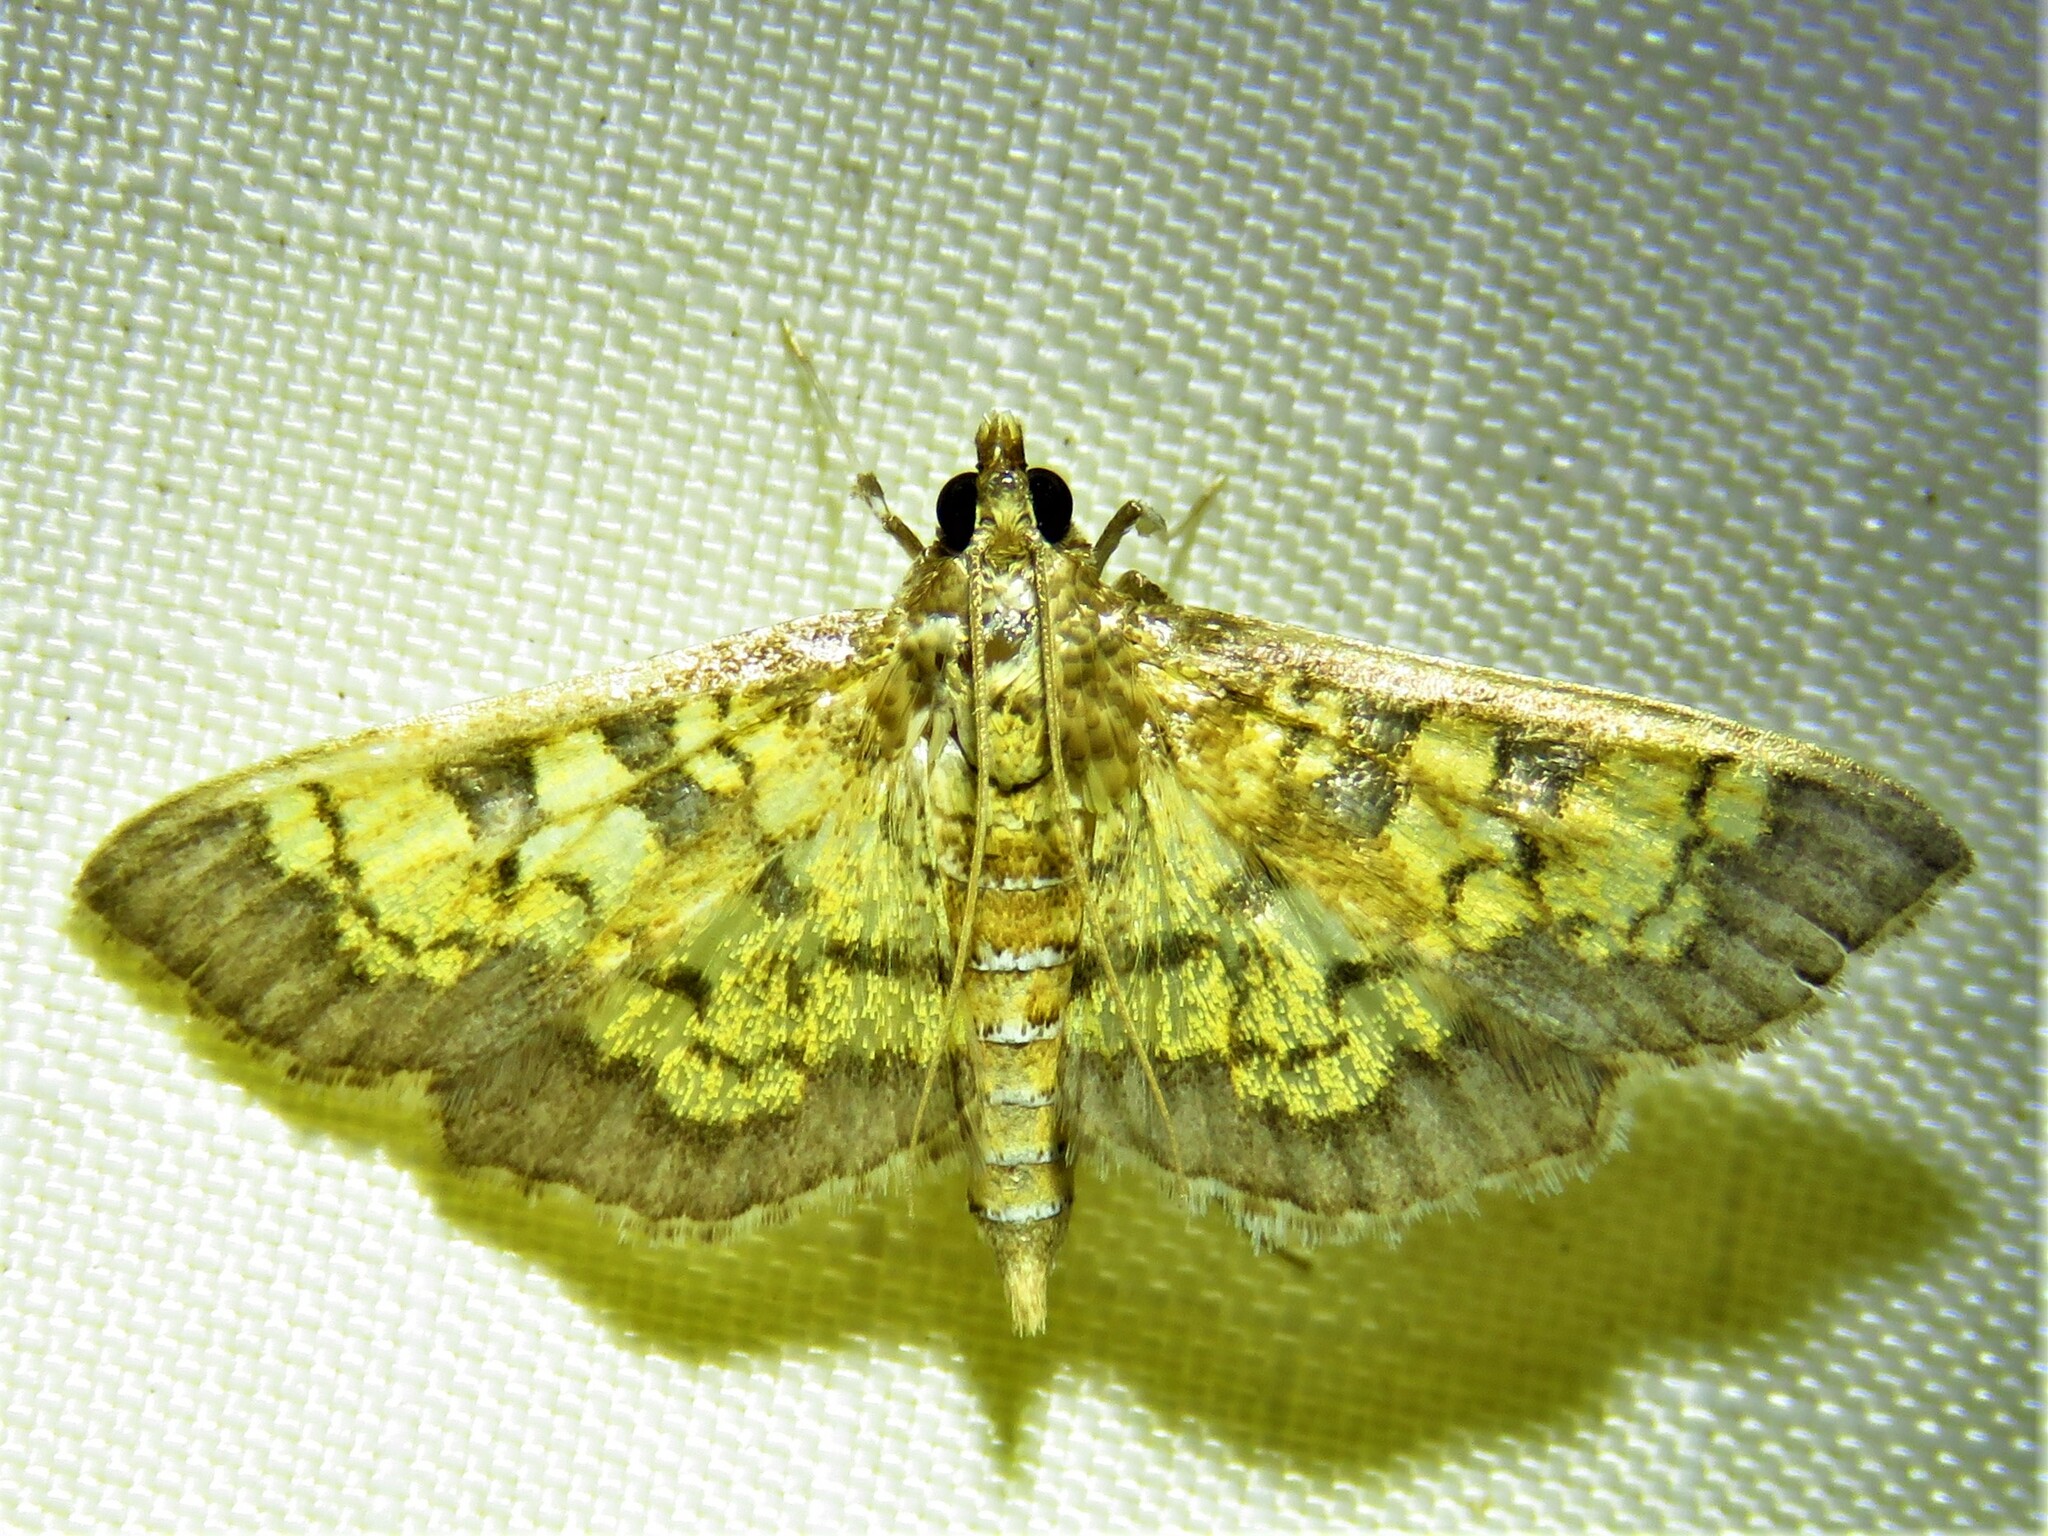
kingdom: Animalia
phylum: Arthropoda
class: Insecta
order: Lepidoptera
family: Crambidae
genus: Epipagis
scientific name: Epipagis adipaloides
